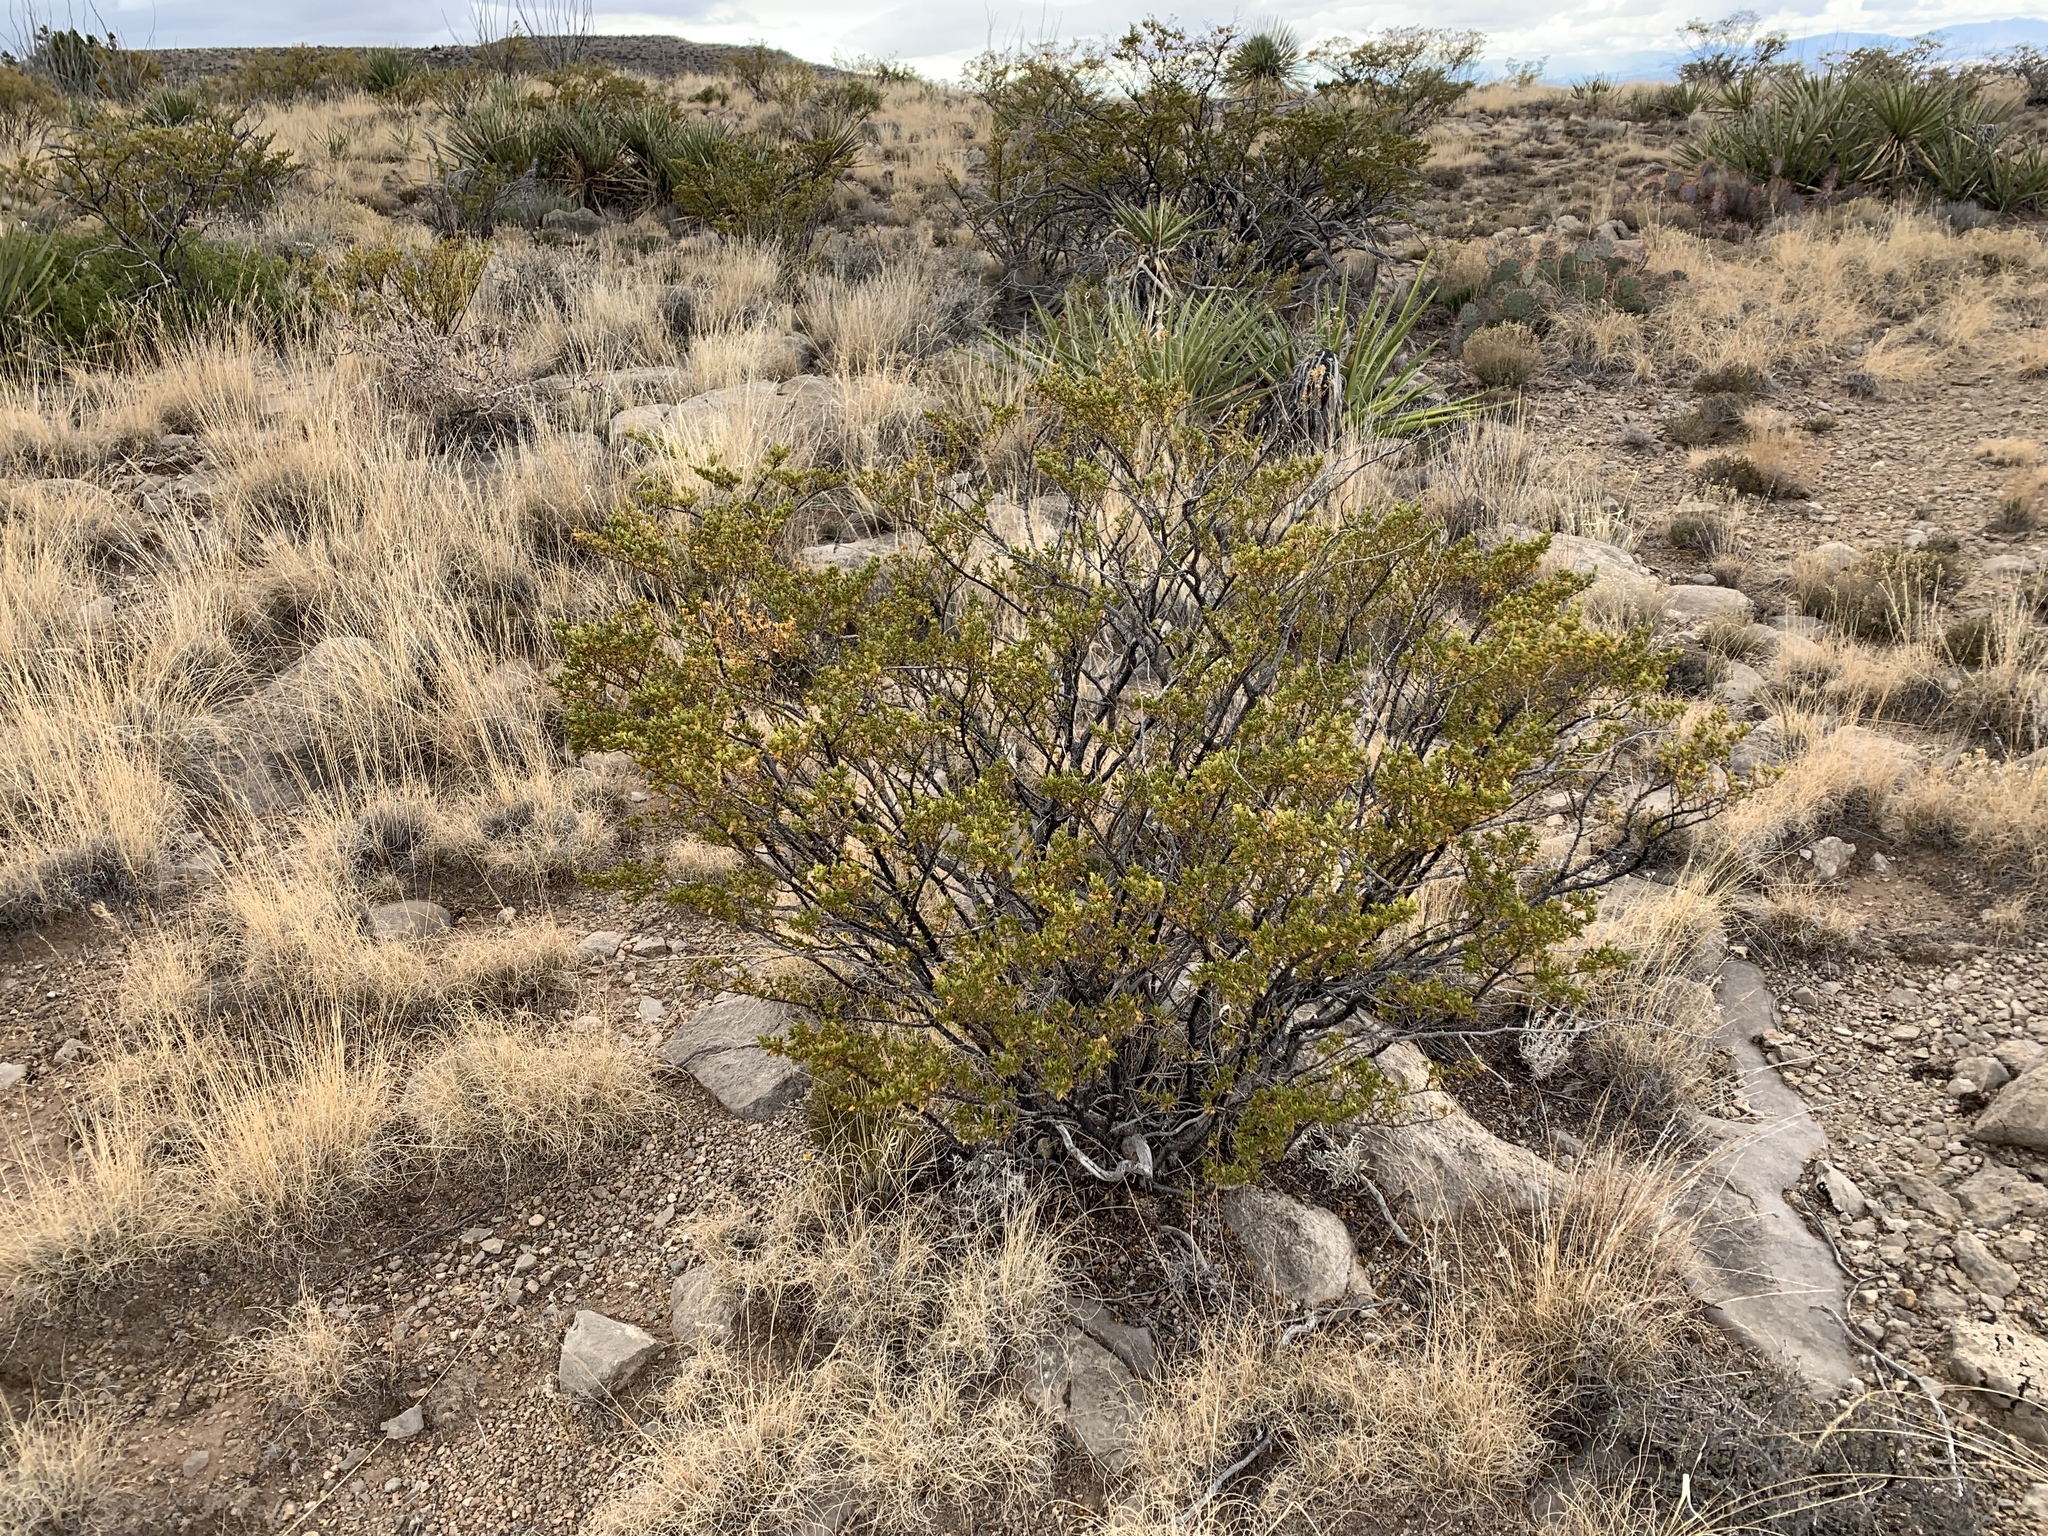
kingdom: Plantae
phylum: Tracheophyta
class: Magnoliopsida
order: Zygophyllales
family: Zygophyllaceae
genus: Larrea
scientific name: Larrea tridentata
